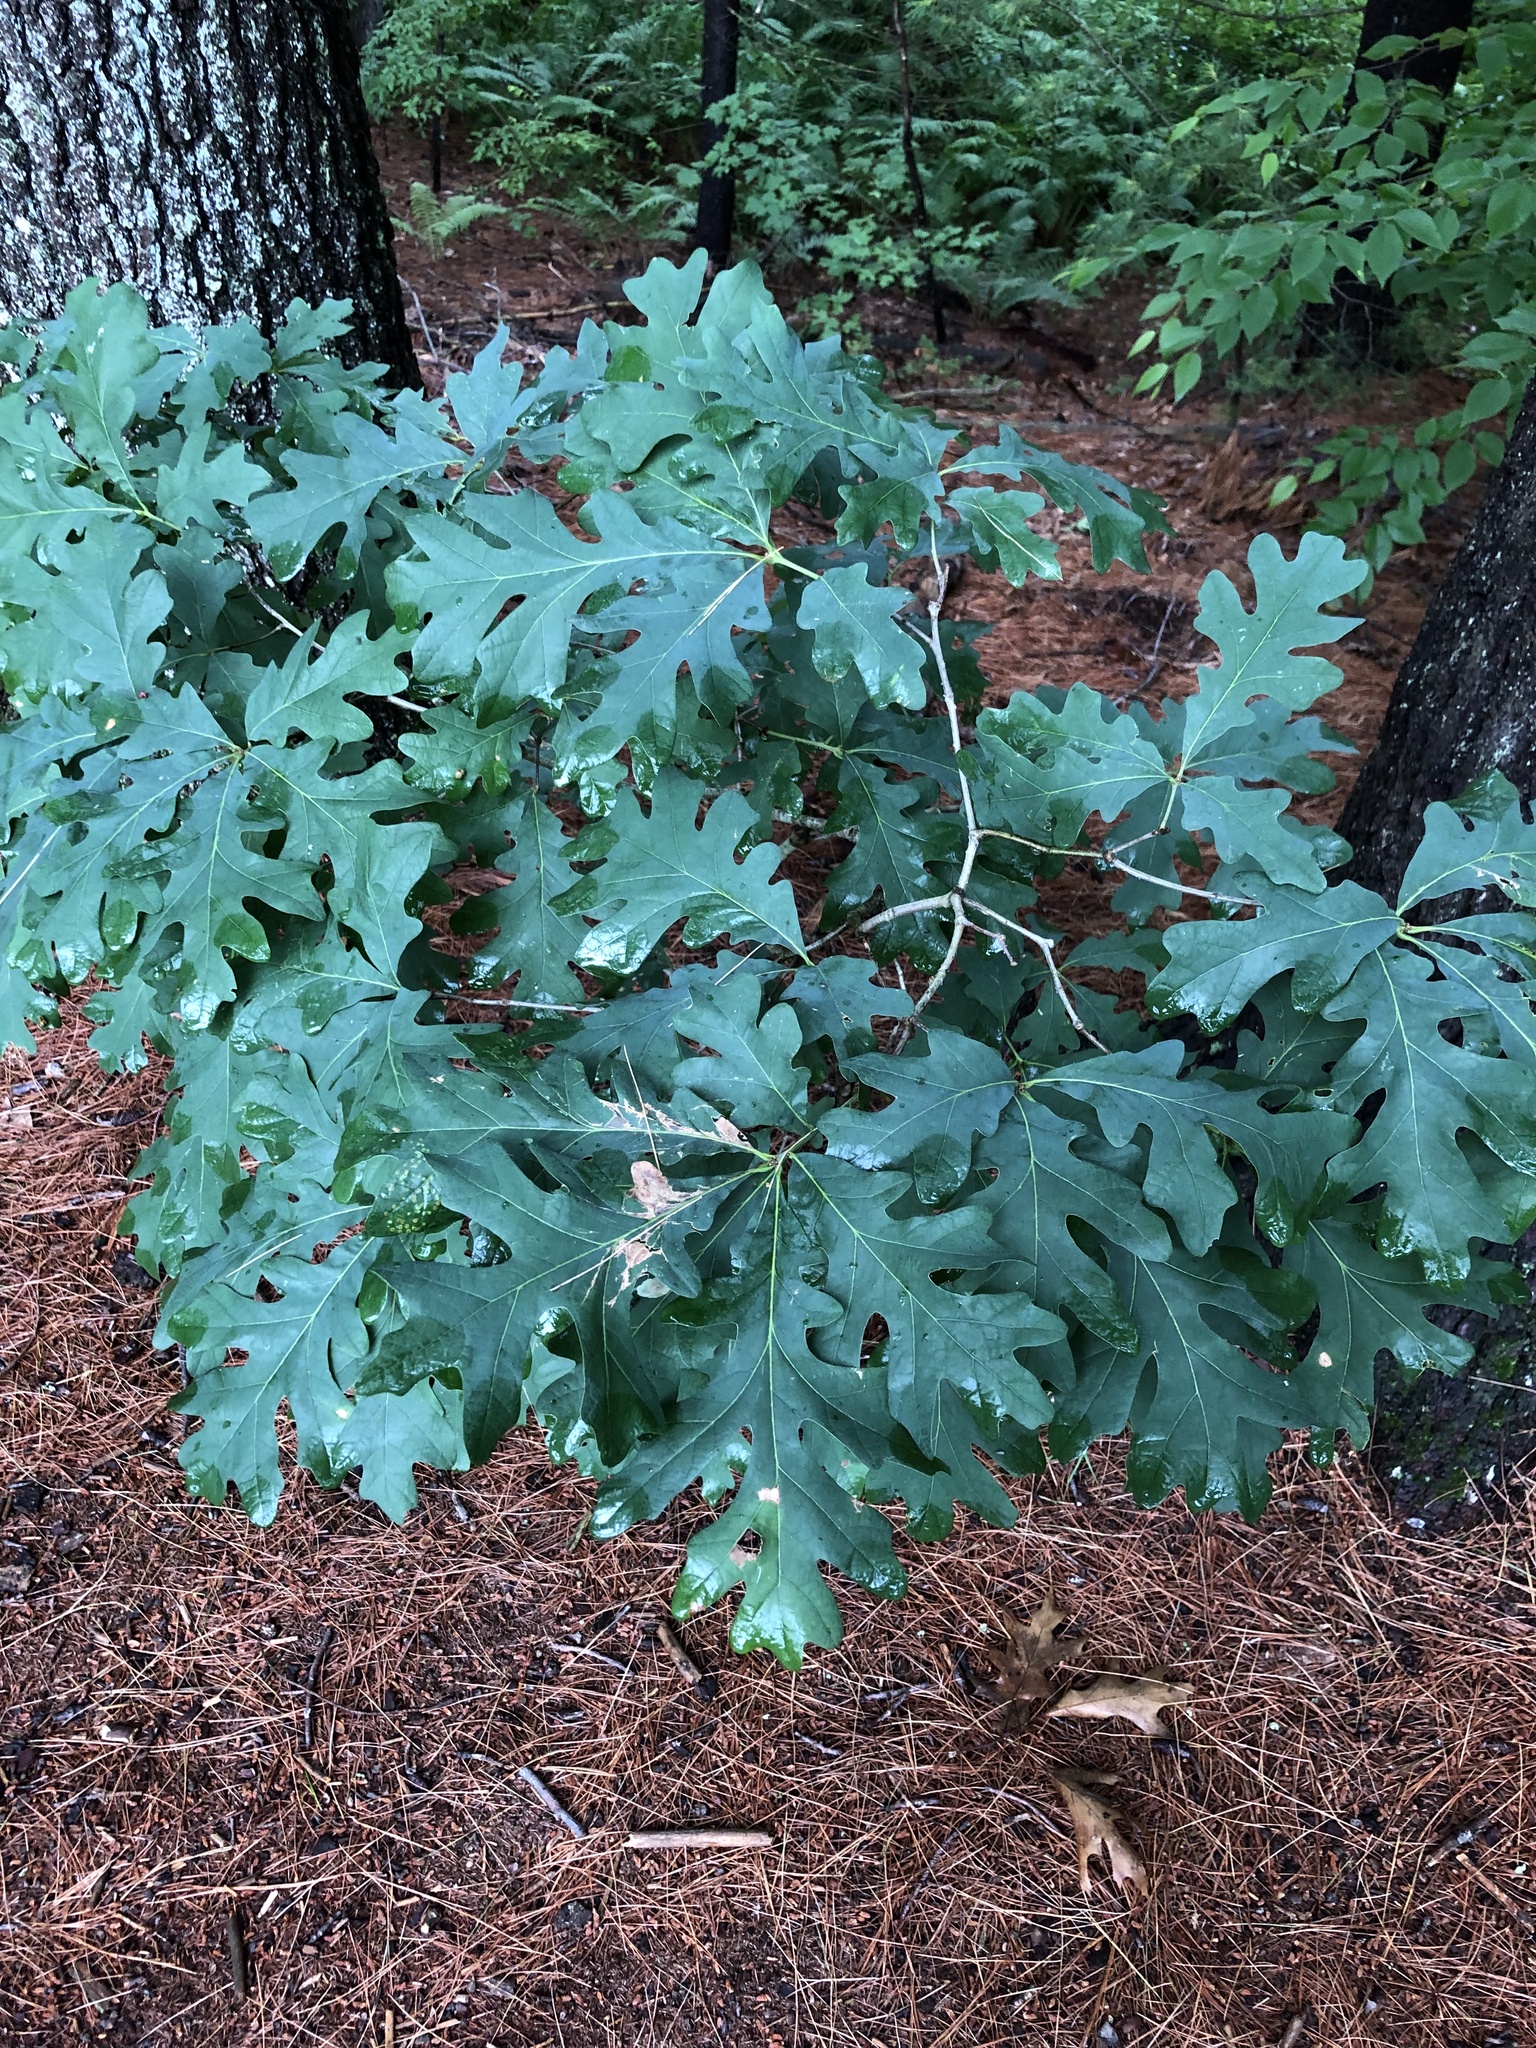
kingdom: Plantae
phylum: Tracheophyta
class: Magnoliopsida
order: Fagales
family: Fagaceae
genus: Quercus
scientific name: Quercus alba
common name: White oak
